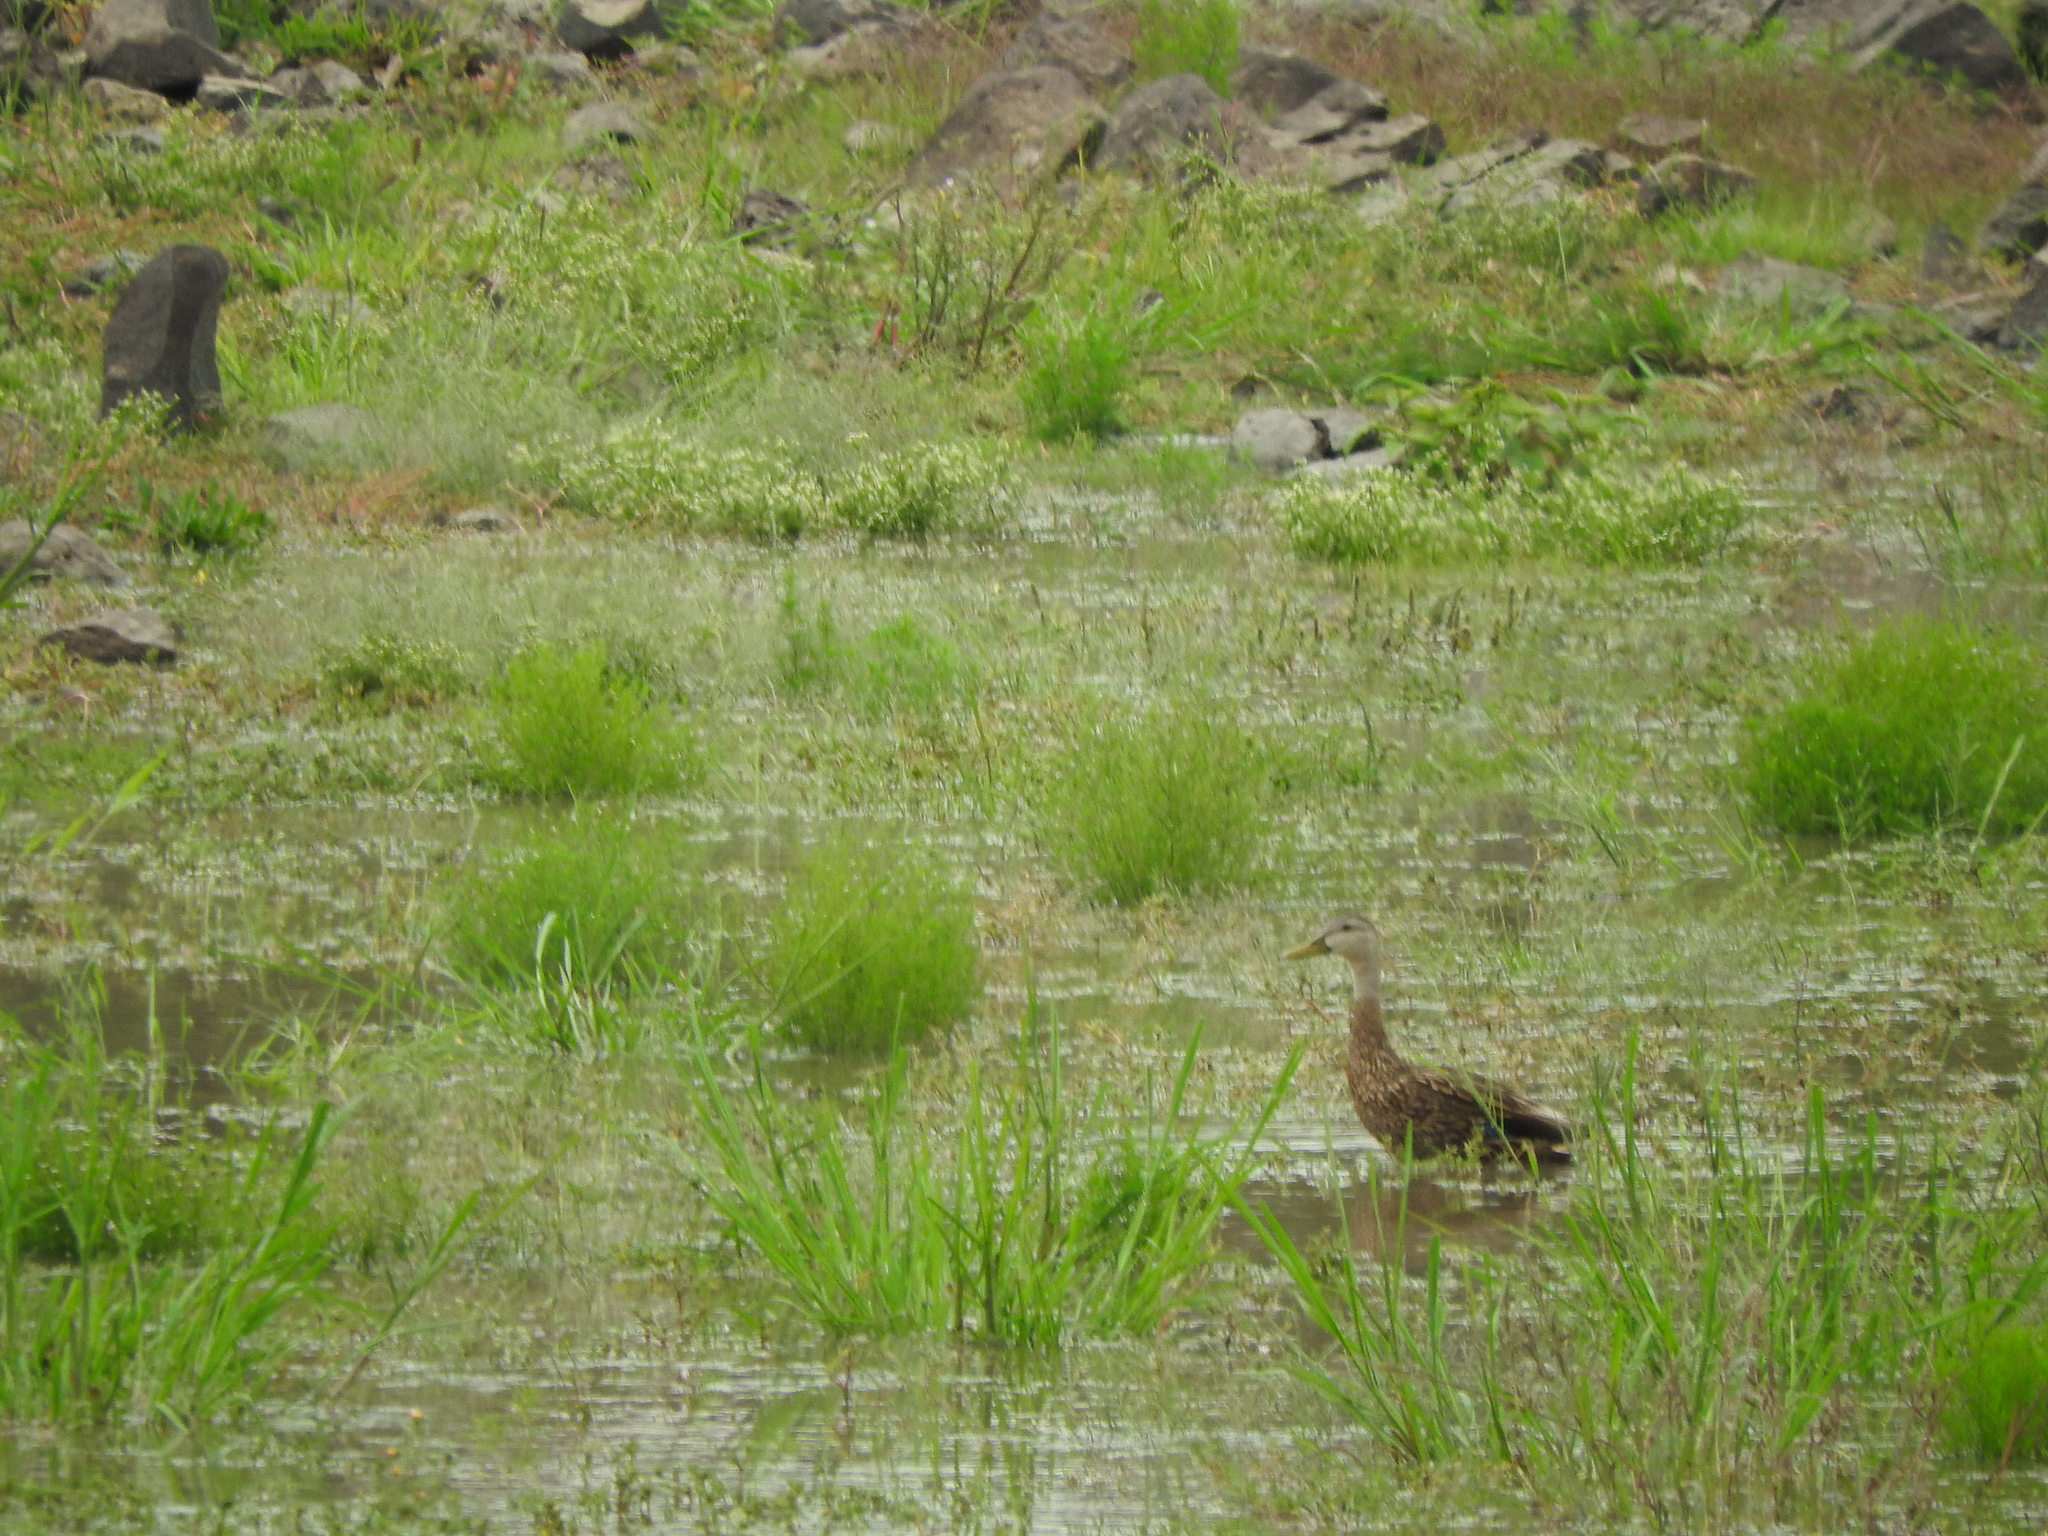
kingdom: Animalia
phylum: Chordata
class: Aves
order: Anseriformes
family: Anatidae
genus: Anas
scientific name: Anas diazi
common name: Mexican duck
